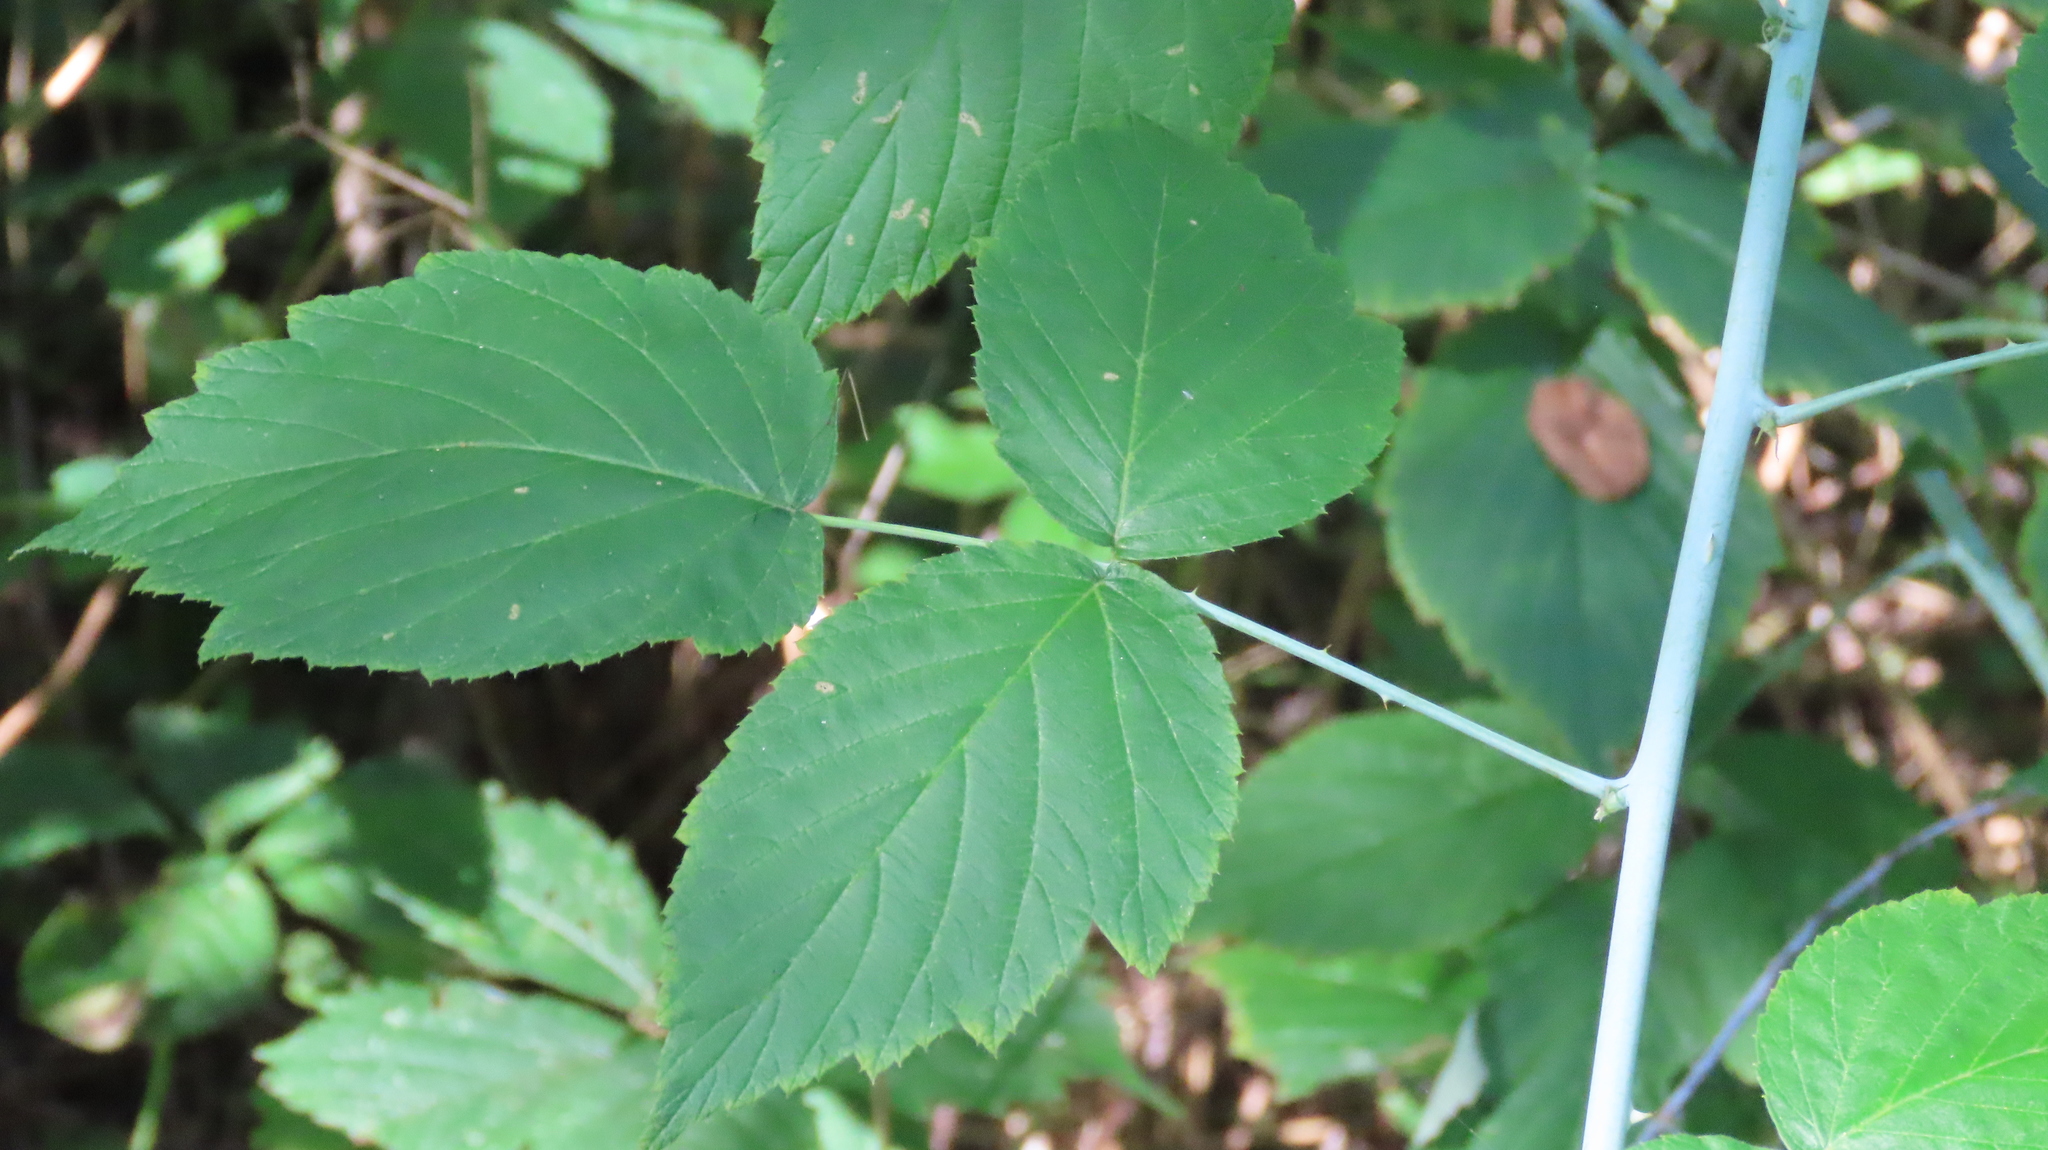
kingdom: Plantae
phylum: Tracheophyta
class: Magnoliopsida
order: Rosales
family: Rosaceae
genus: Rubus
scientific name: Rubus occidentalis
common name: Black raspberry
